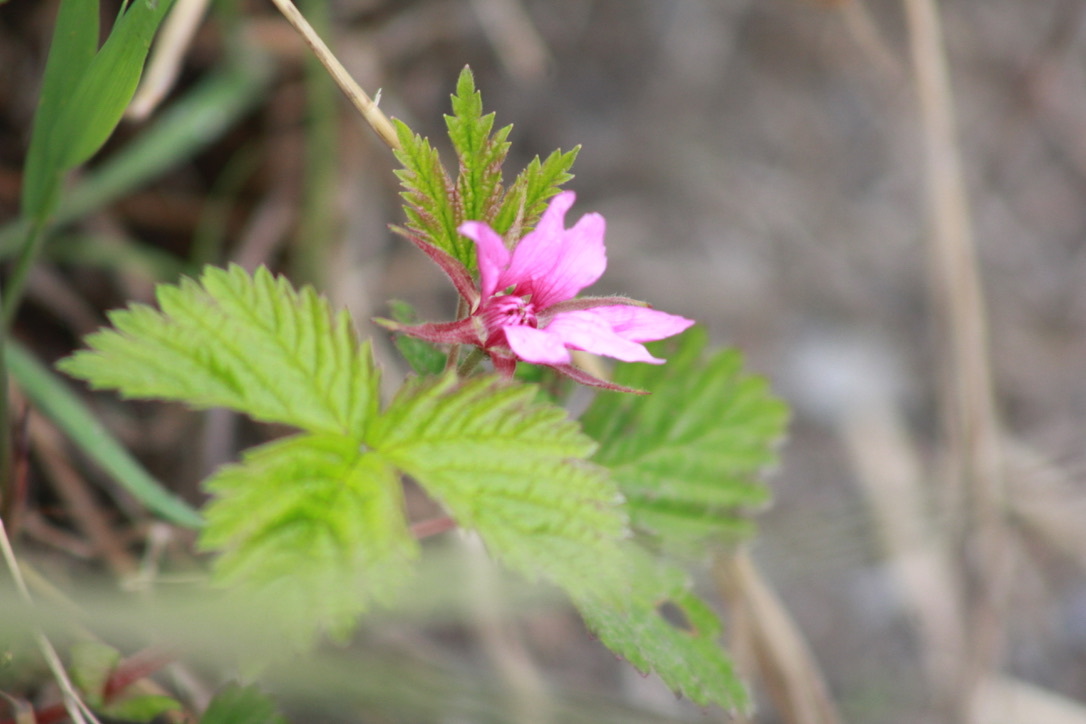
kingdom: Plantae
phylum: Tracheophyta
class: Magnoliopsida
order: Rosales
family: Rosaceae
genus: Rubus
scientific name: Rubus arcticus
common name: Arctic bramble
